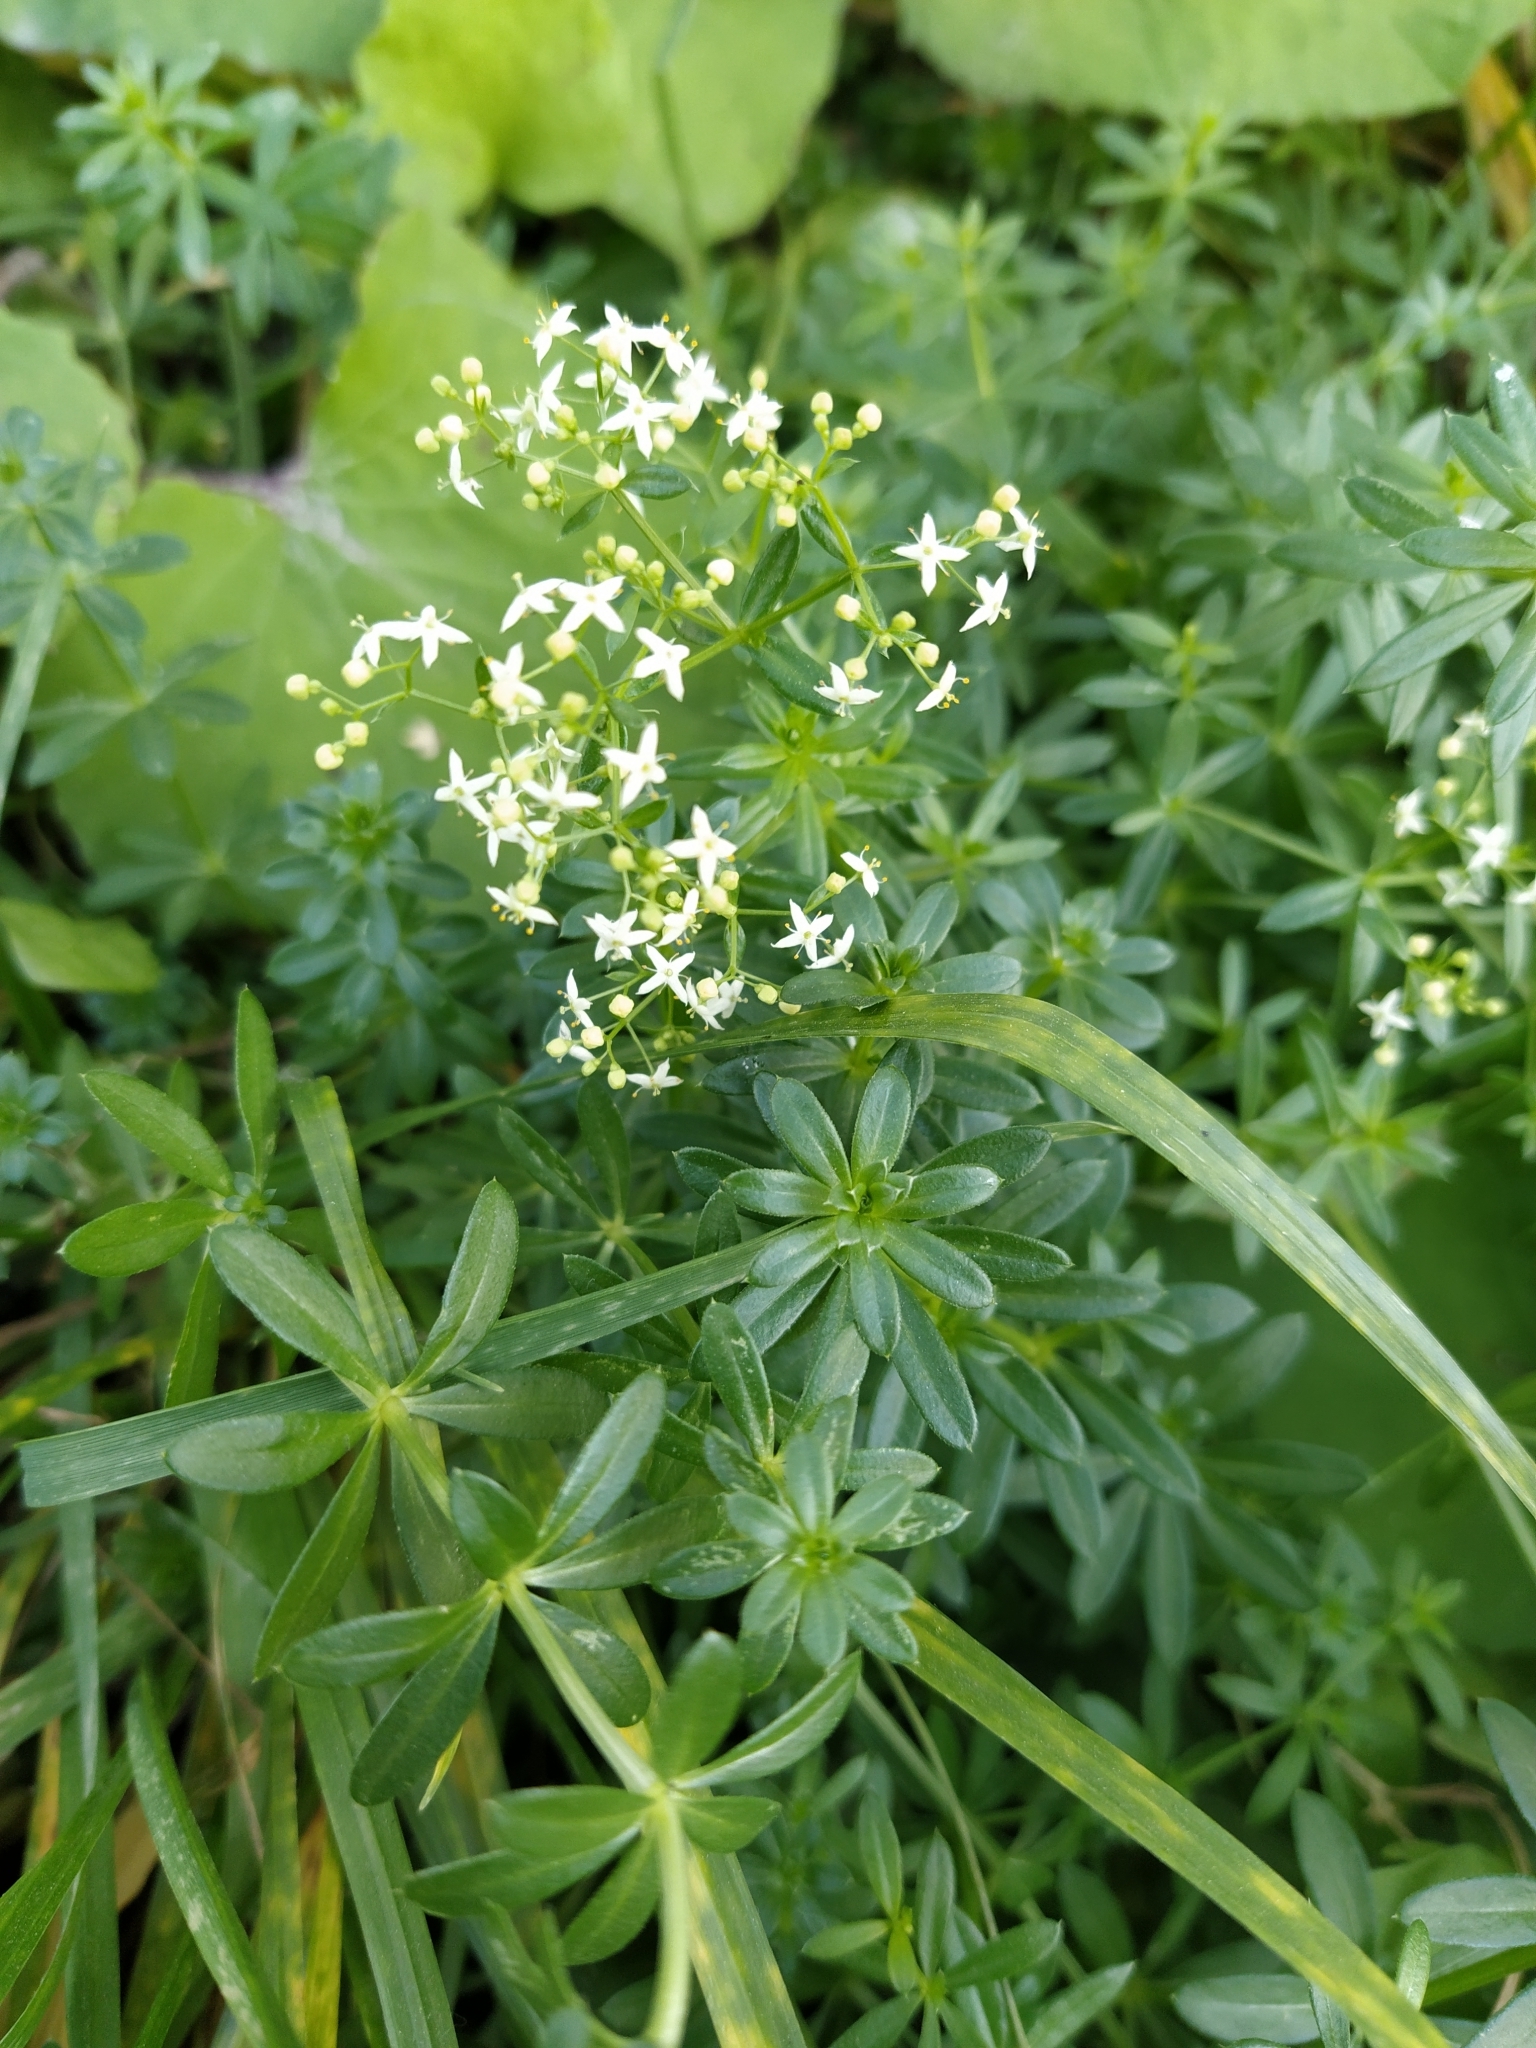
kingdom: Plantae
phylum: Tracheophyta
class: Magnoliopsida
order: Gentianales
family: Rubiaceae
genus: Galium
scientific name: Galium mollugo
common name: Hedge bedstraw
